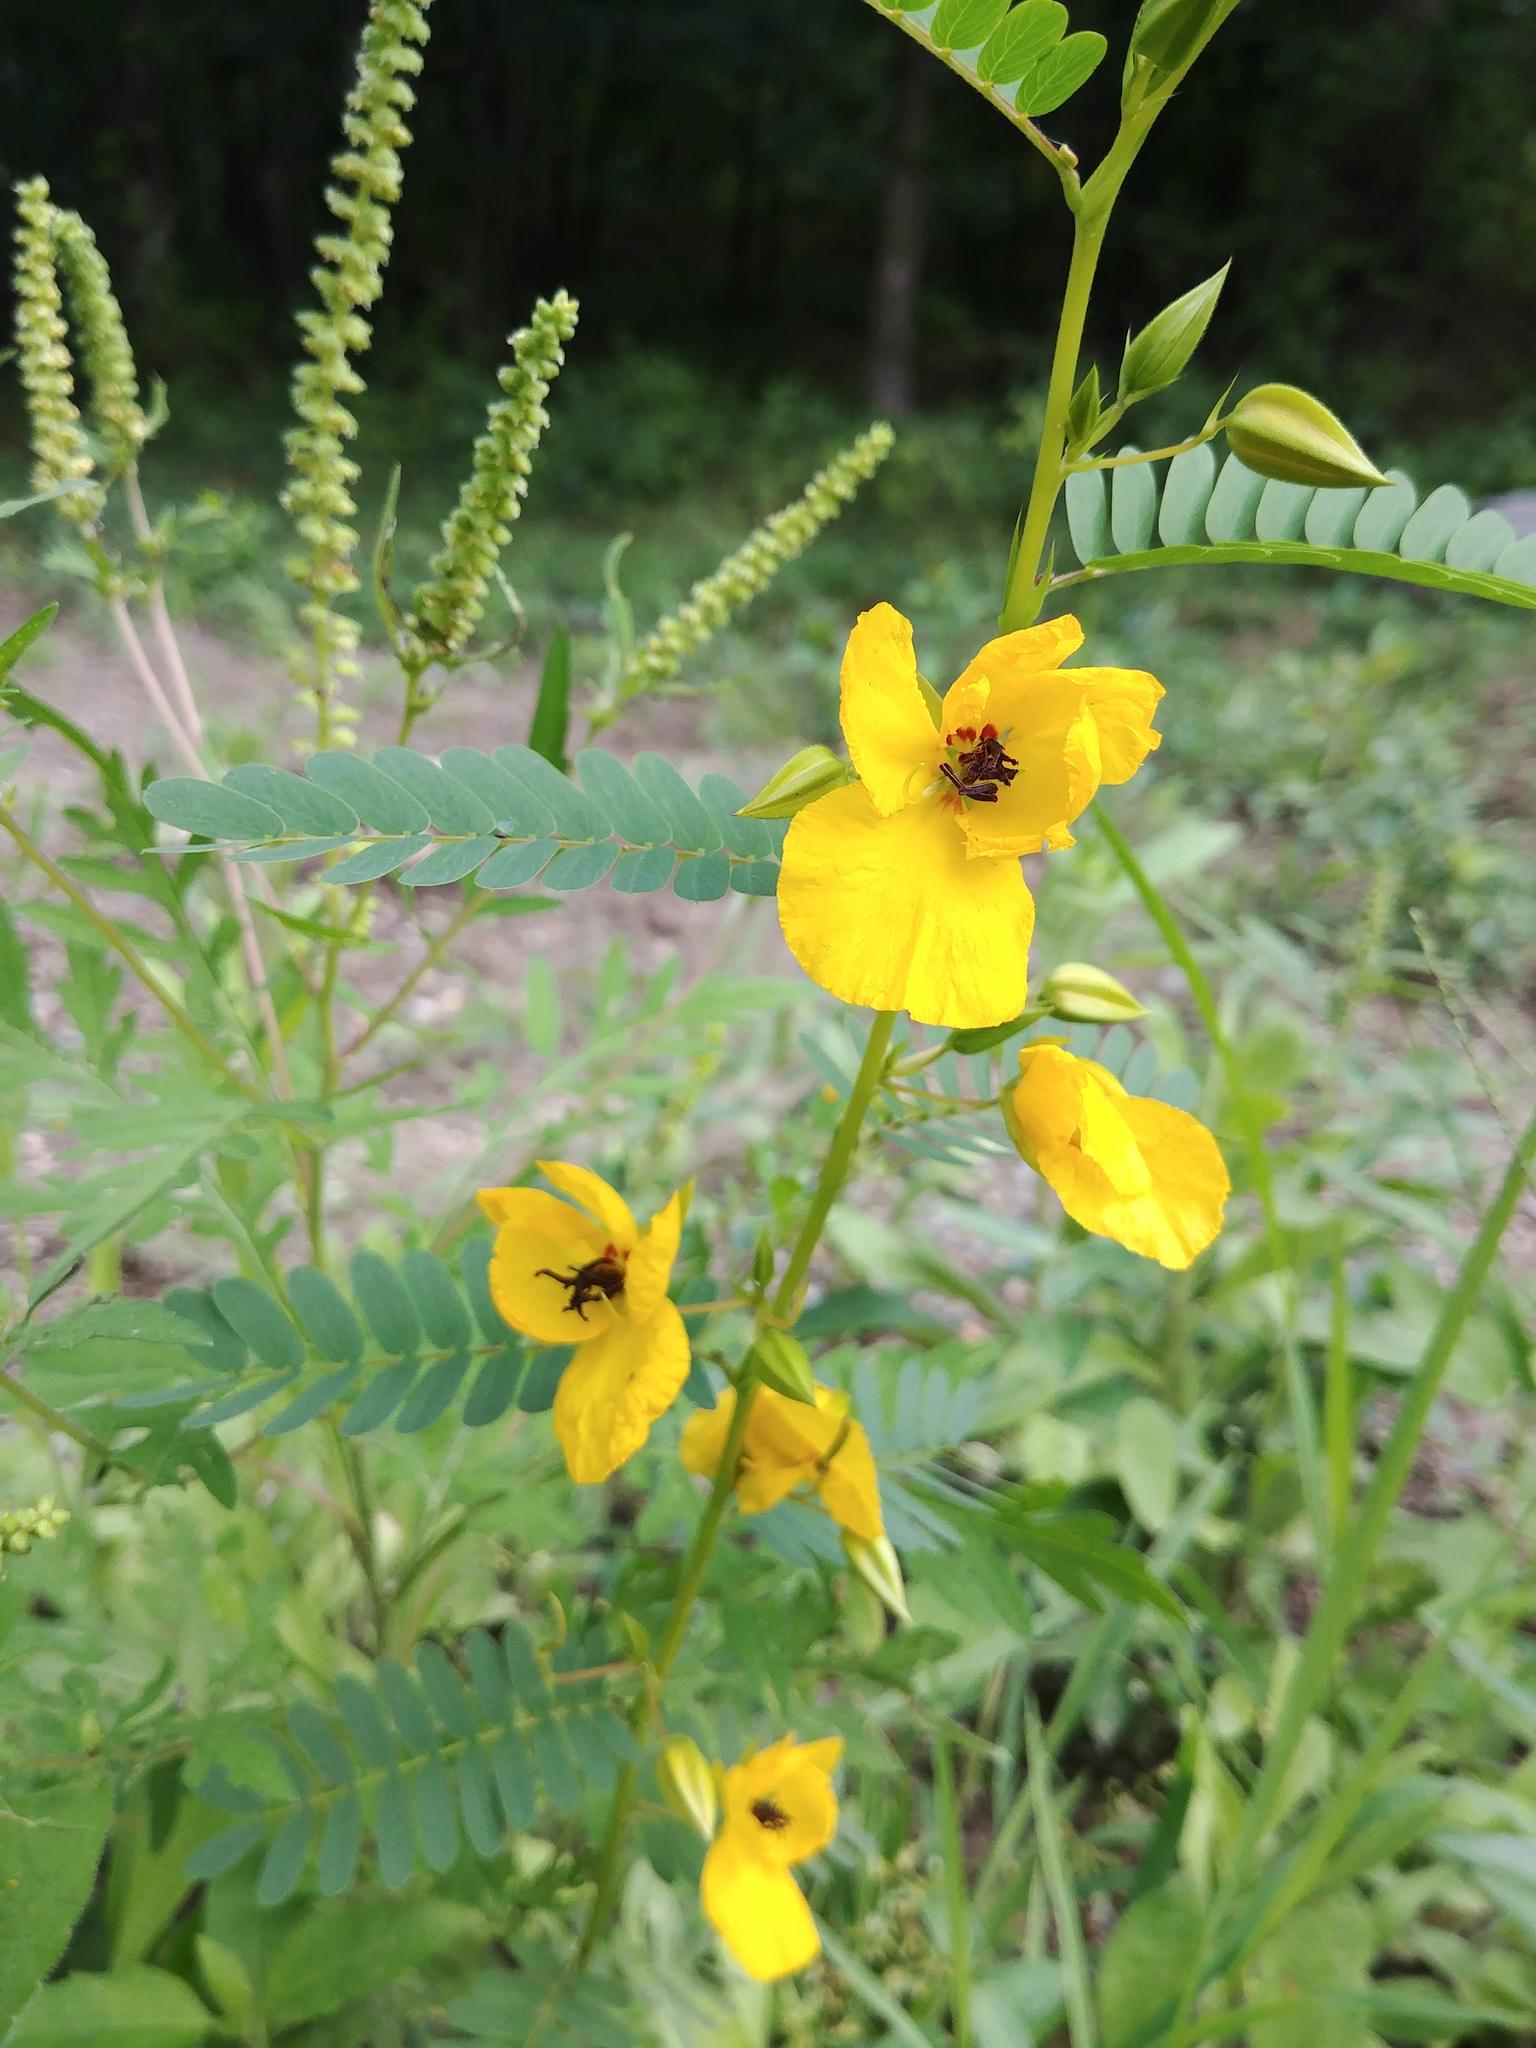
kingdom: Plantae
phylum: Tracheophyta
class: Magnoliopsida
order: Fabales
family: Fabaceae
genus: Chamaecrista
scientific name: Chamaecrista fasciculata
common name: Golden cassia
